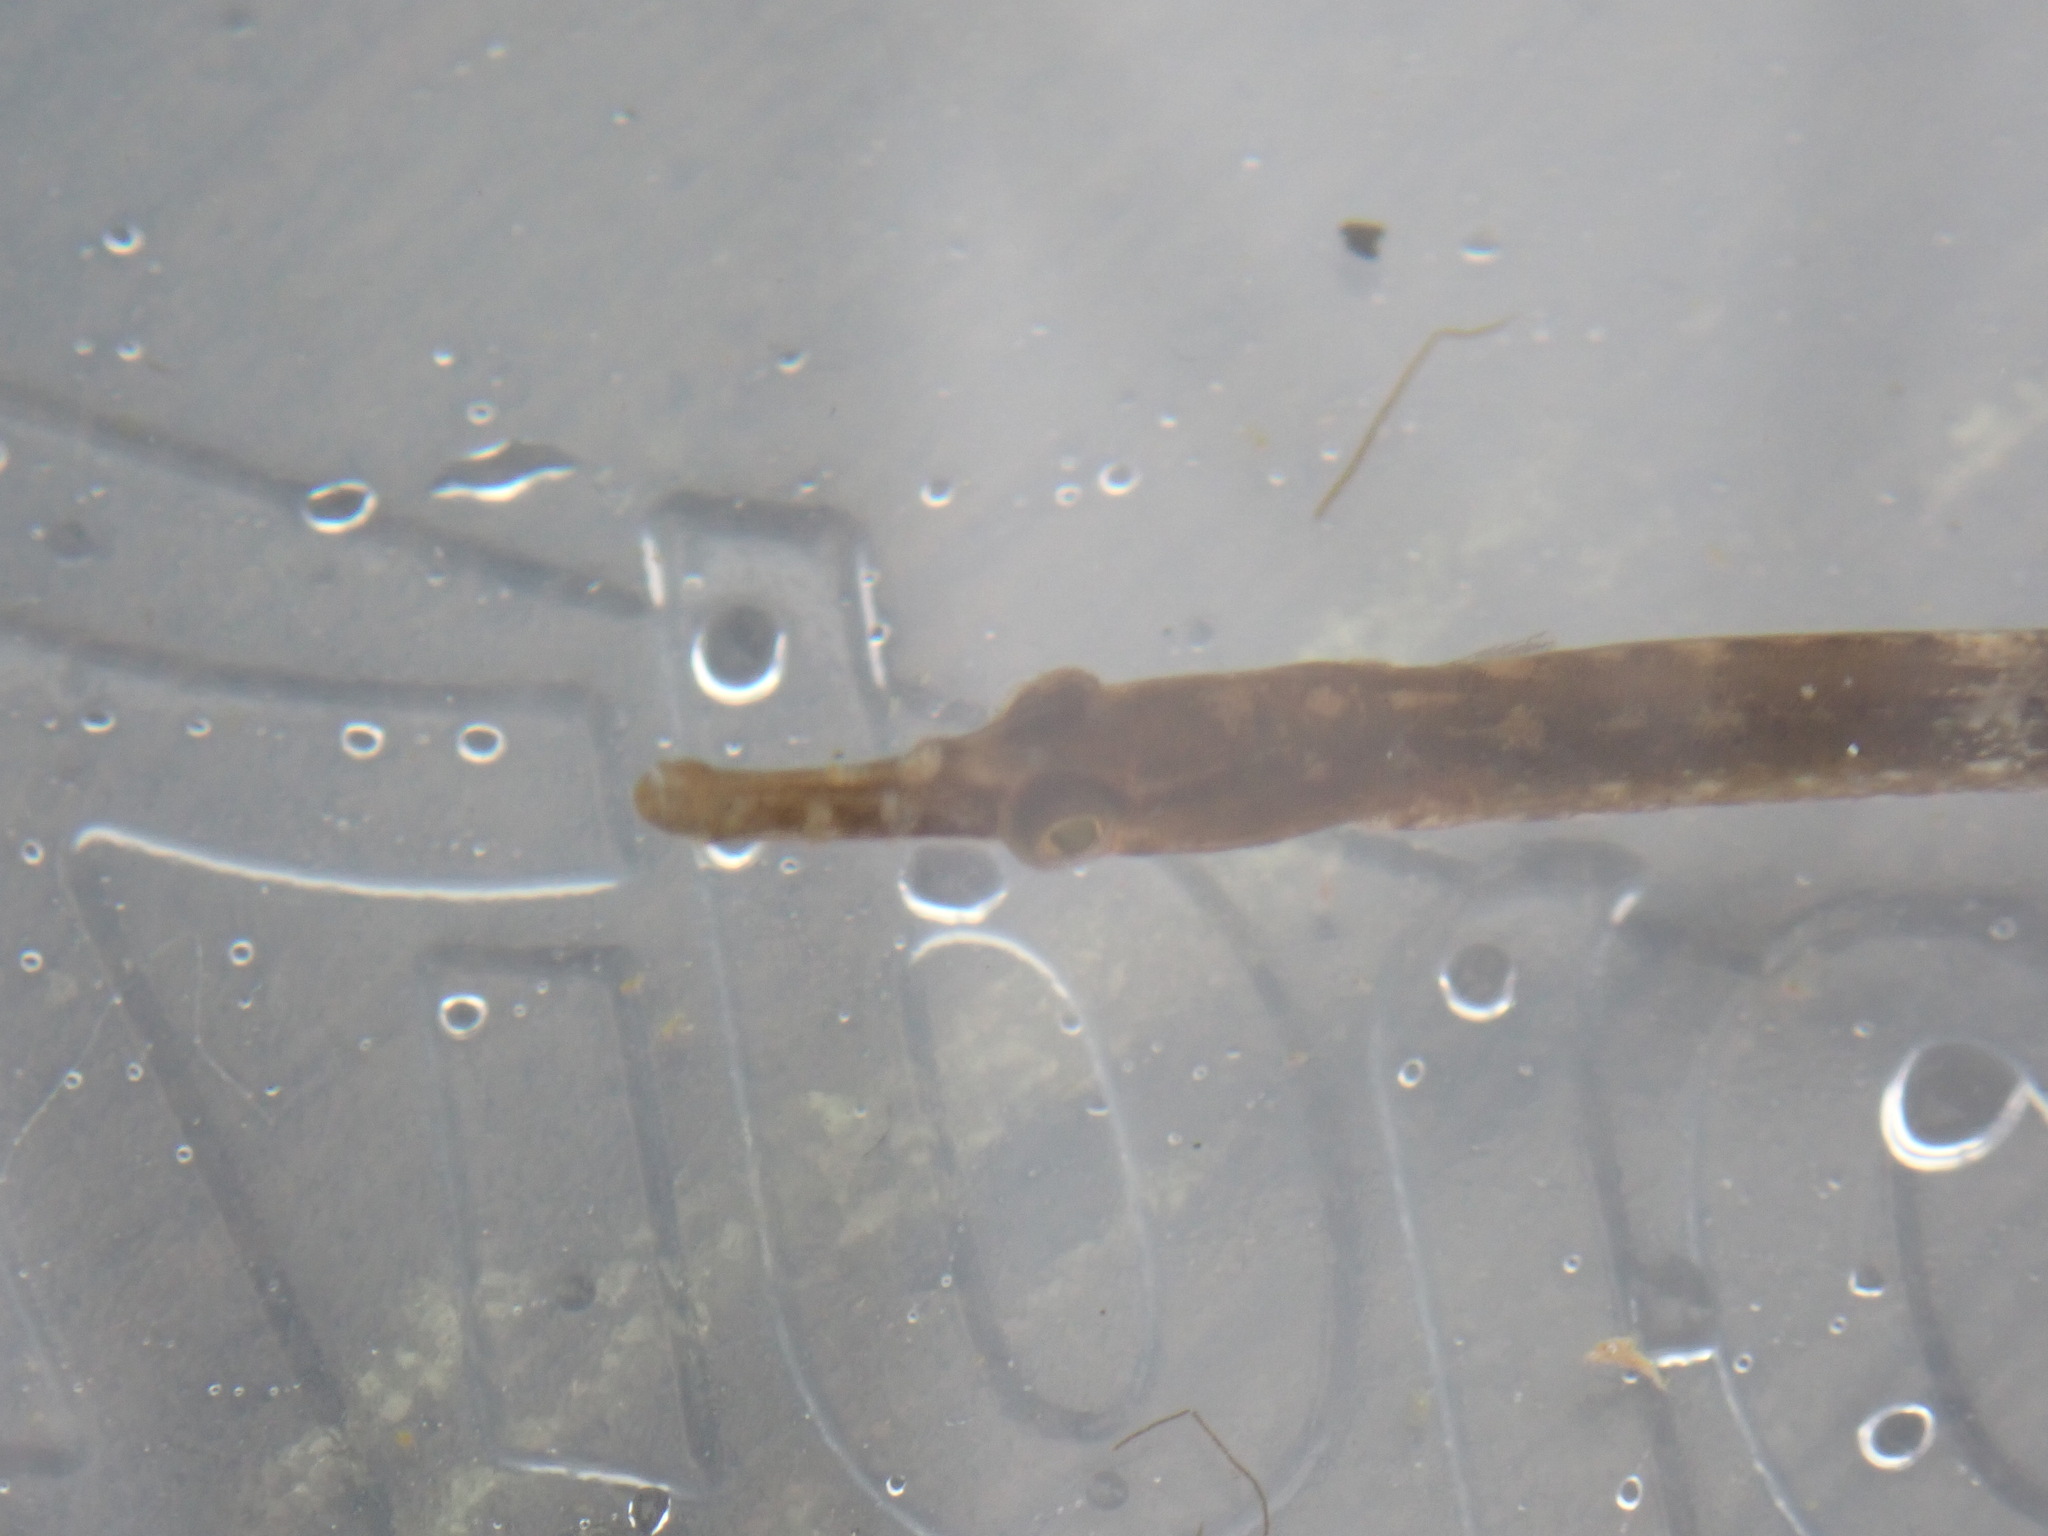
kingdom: Animalia
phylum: Chordata
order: Syngnathiformes
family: Syngnathidae
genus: Syngnathus
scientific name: Syngnathus californiensis
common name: Great pipefish
